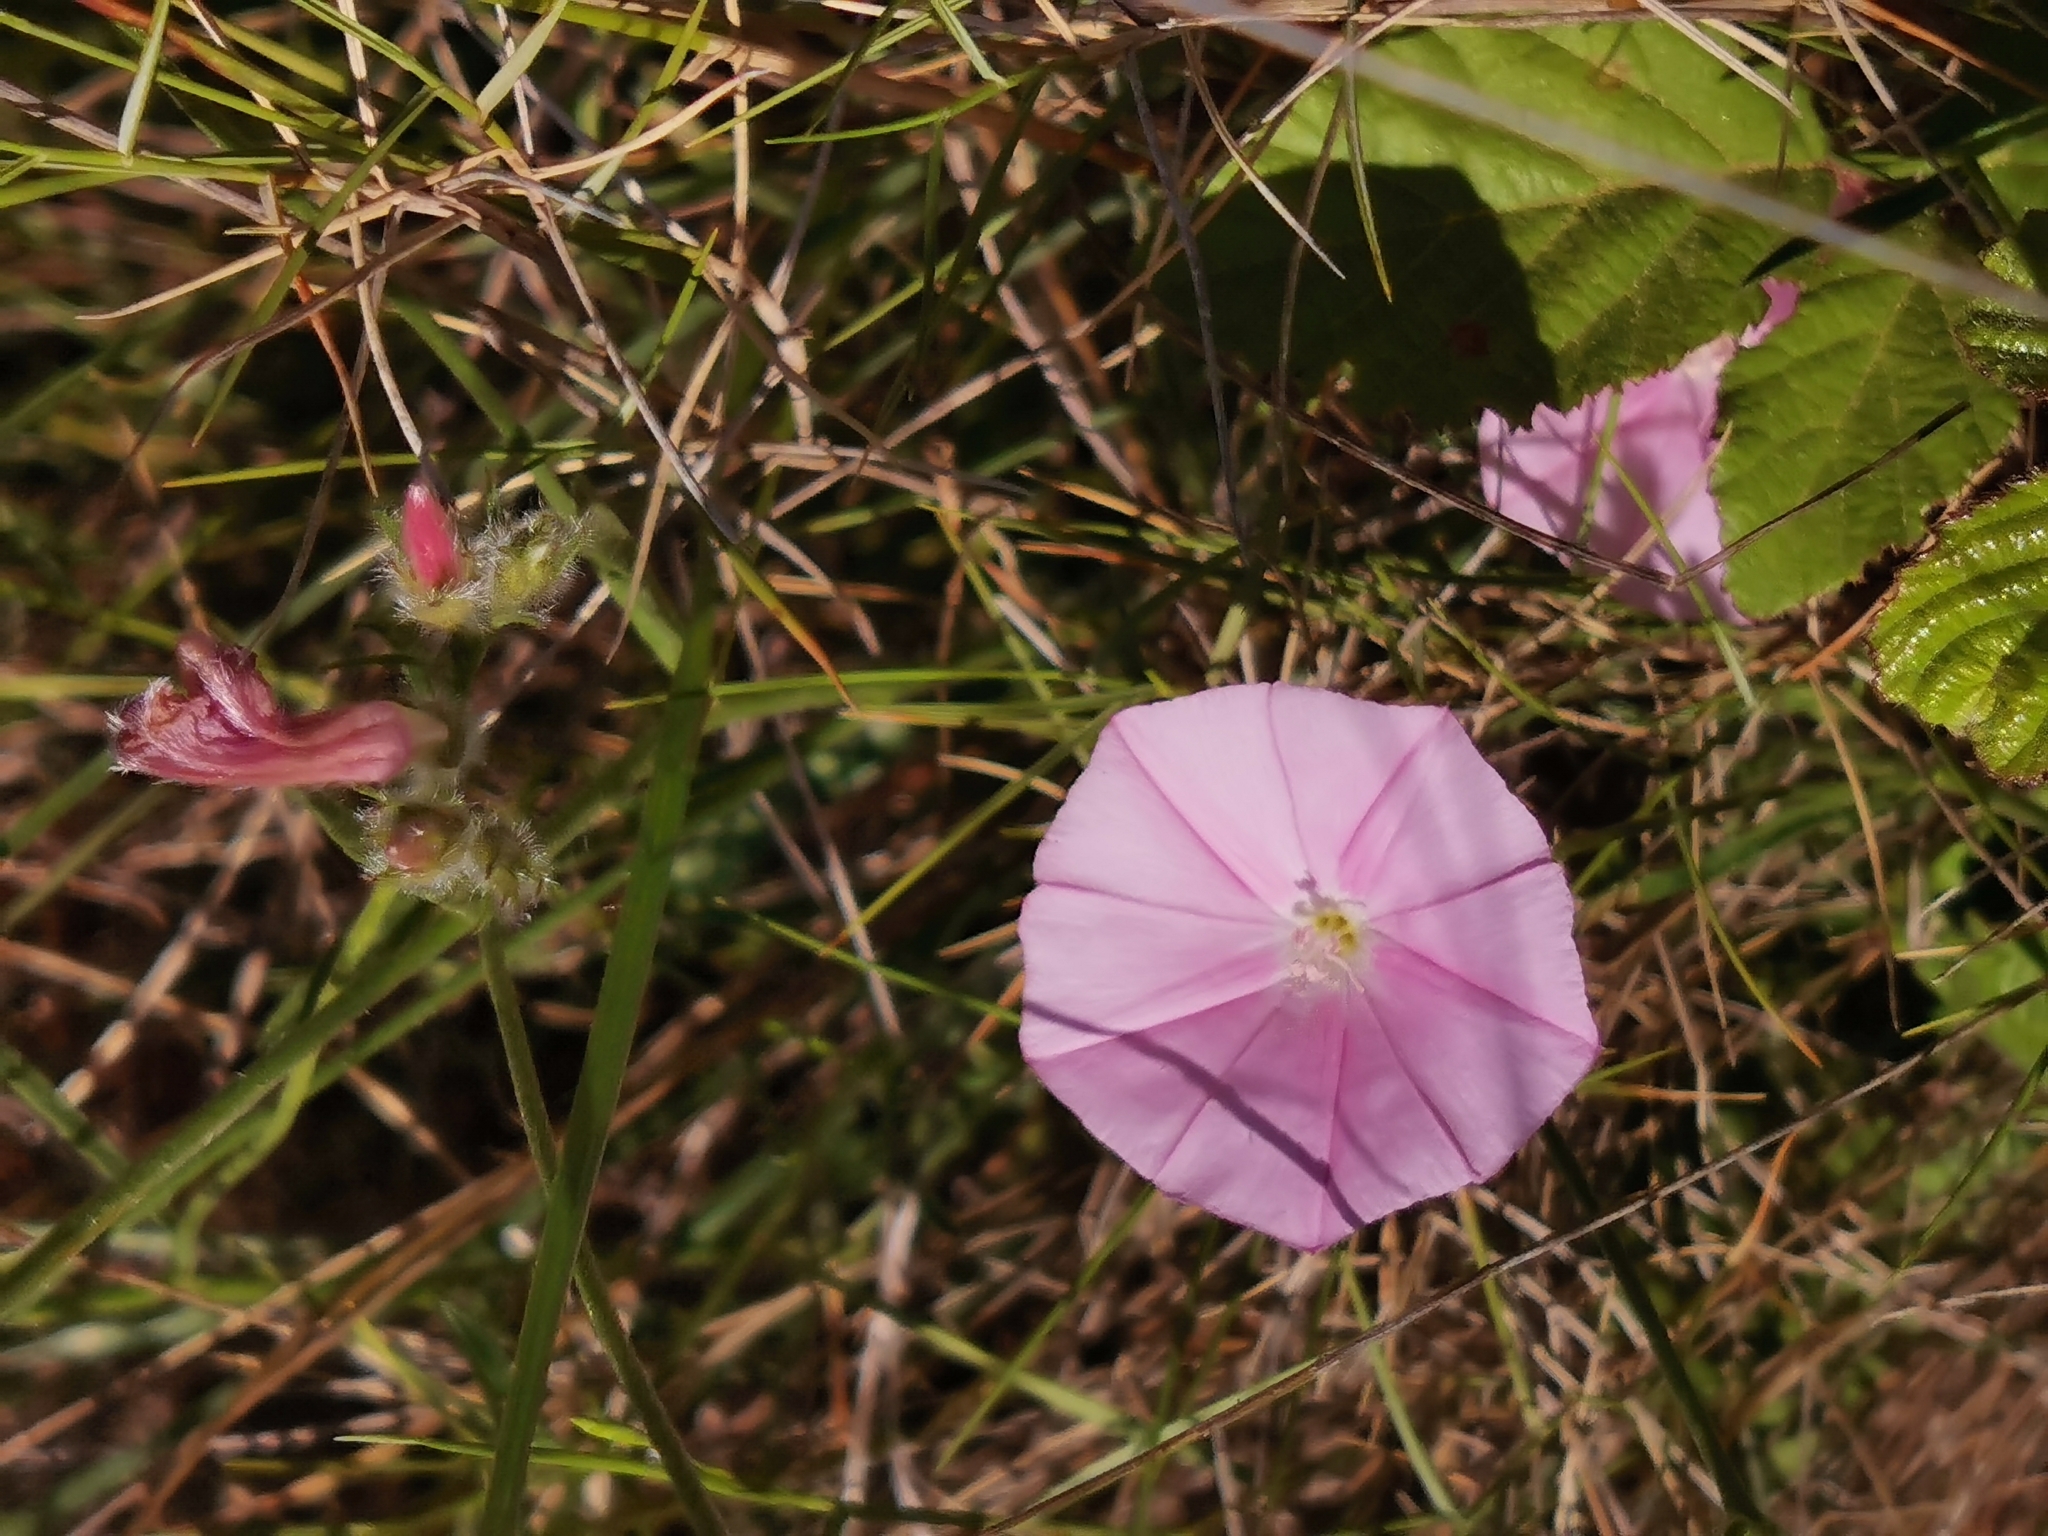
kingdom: Plantae
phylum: Tracheophyta
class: Magnoliopsida
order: Solanales
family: Convolvulaceae
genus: Convolvulus
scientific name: Convolvulus cantabrica
